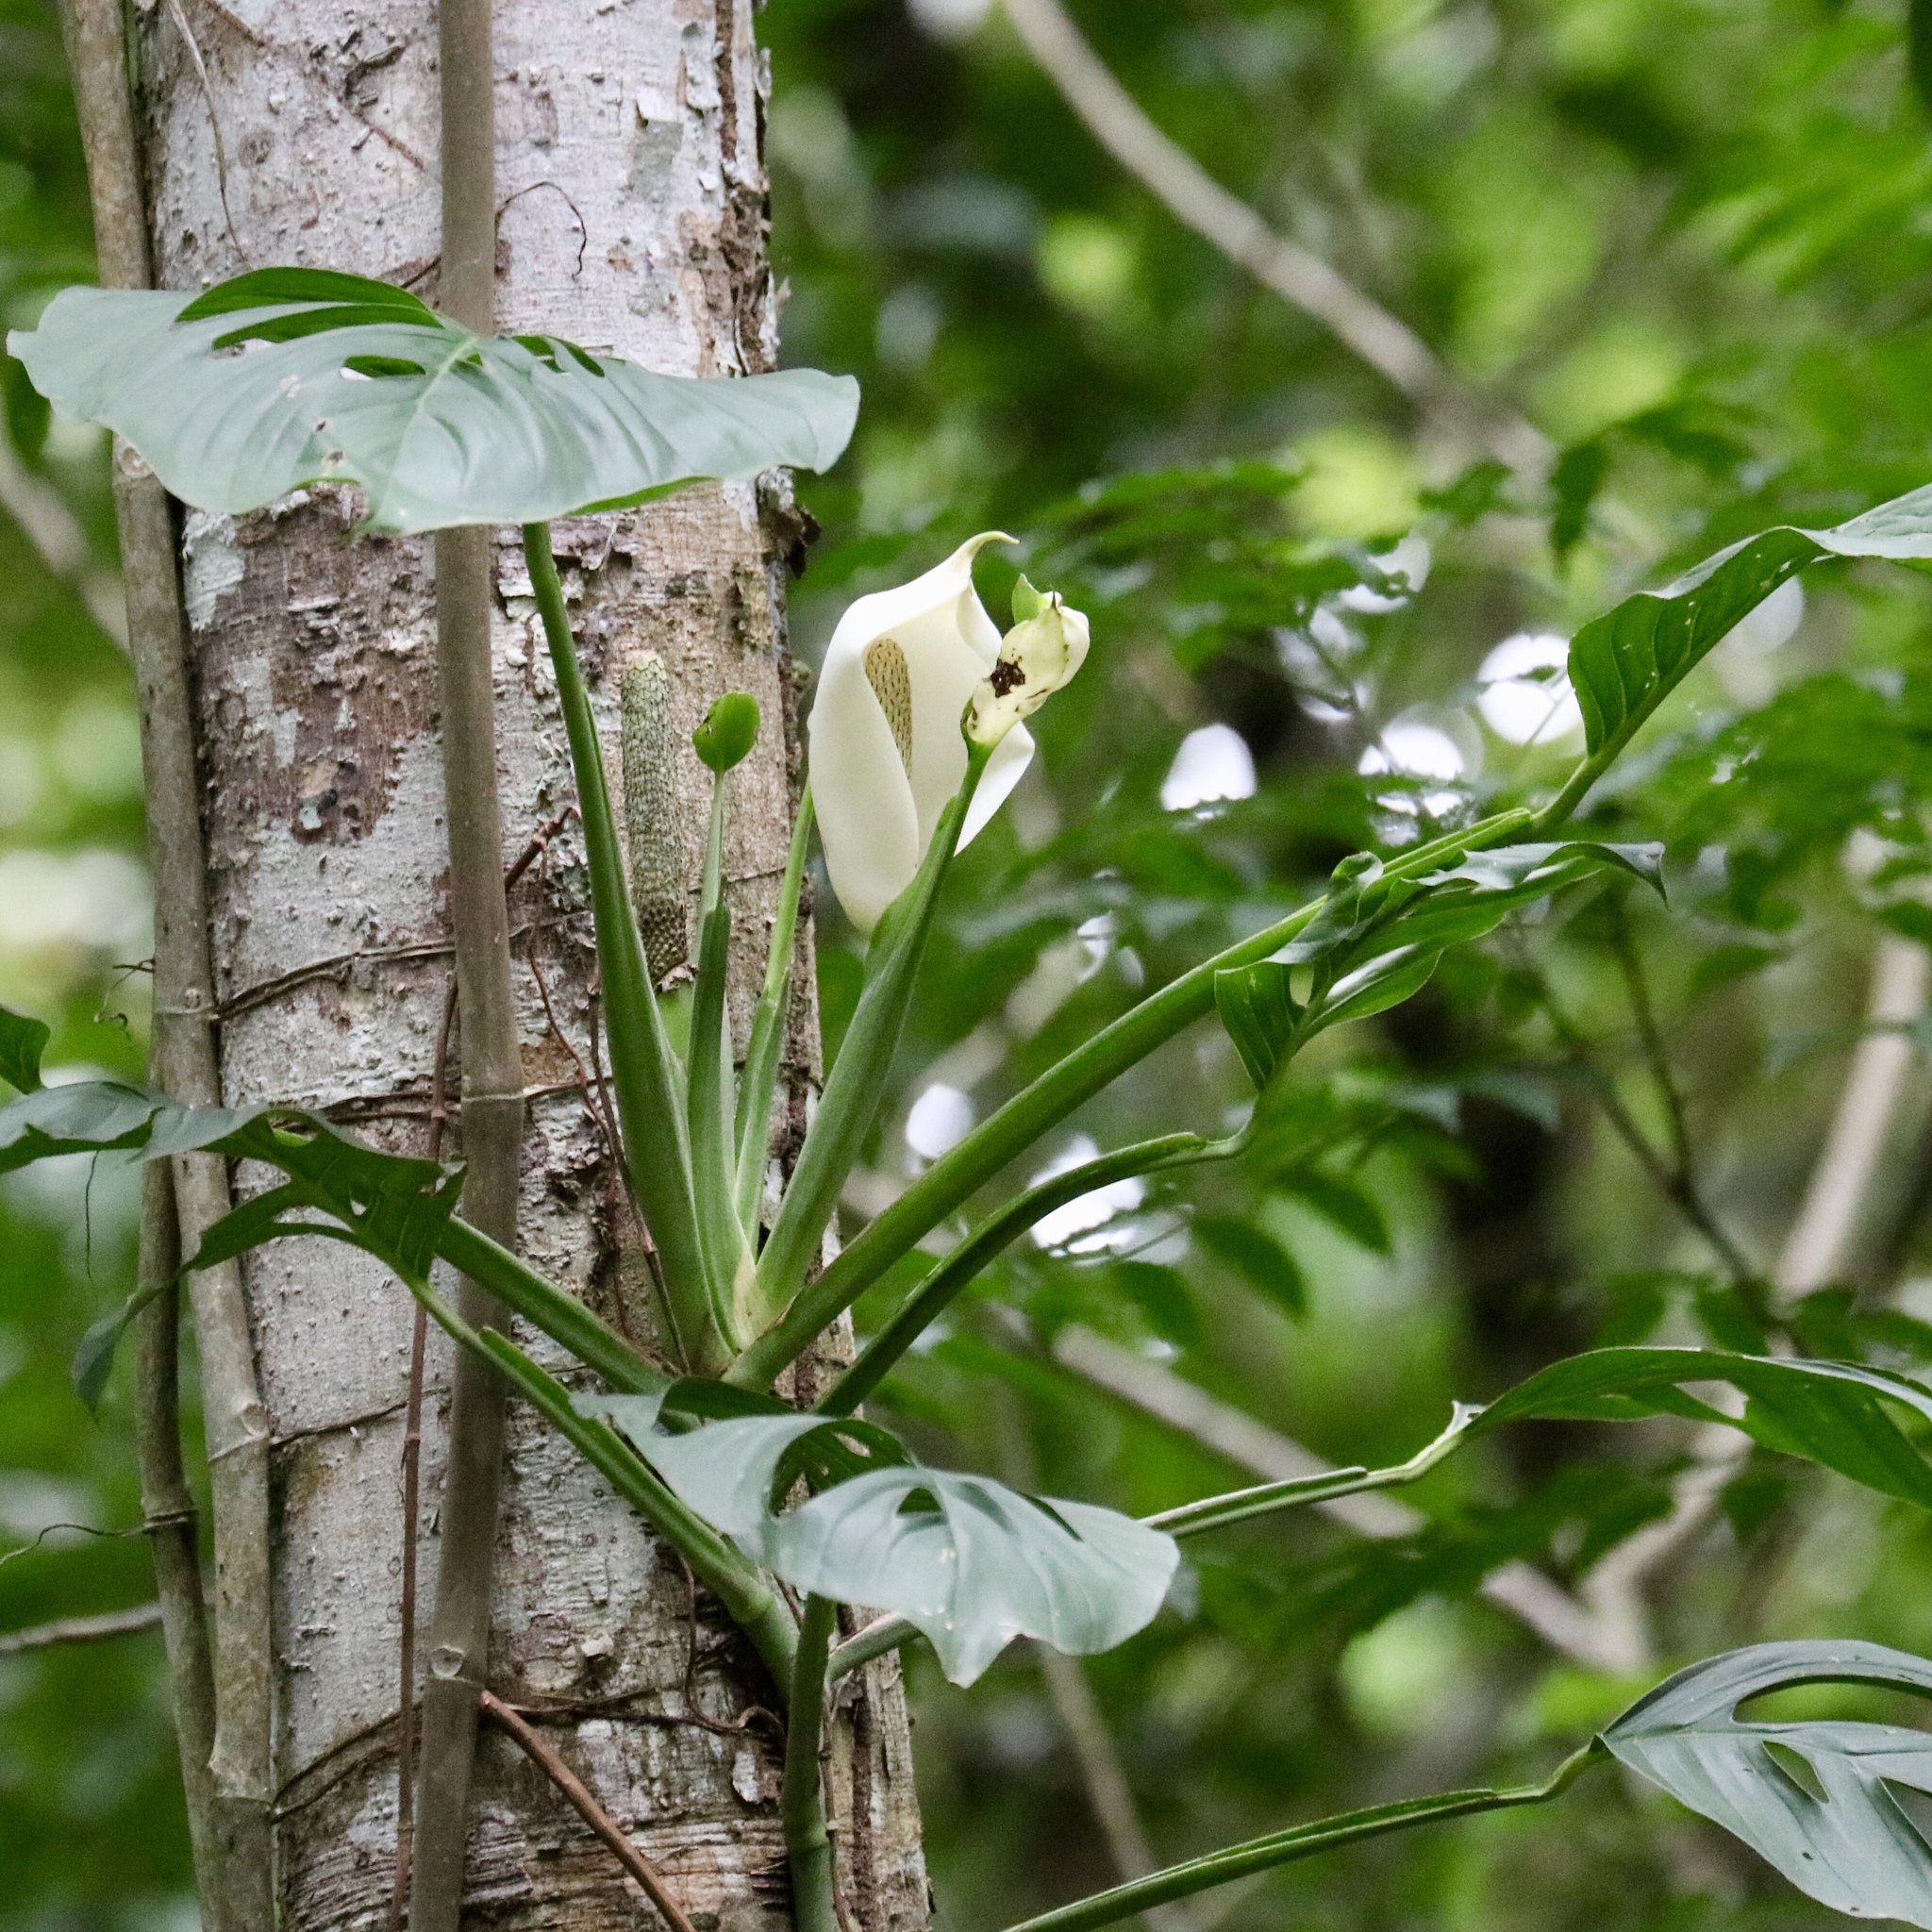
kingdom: Plantae
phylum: Tracheophyta
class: Liliopsida
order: Alismatales
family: Araceae
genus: Monstera
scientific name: Monstera adansonii
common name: Tarovine
